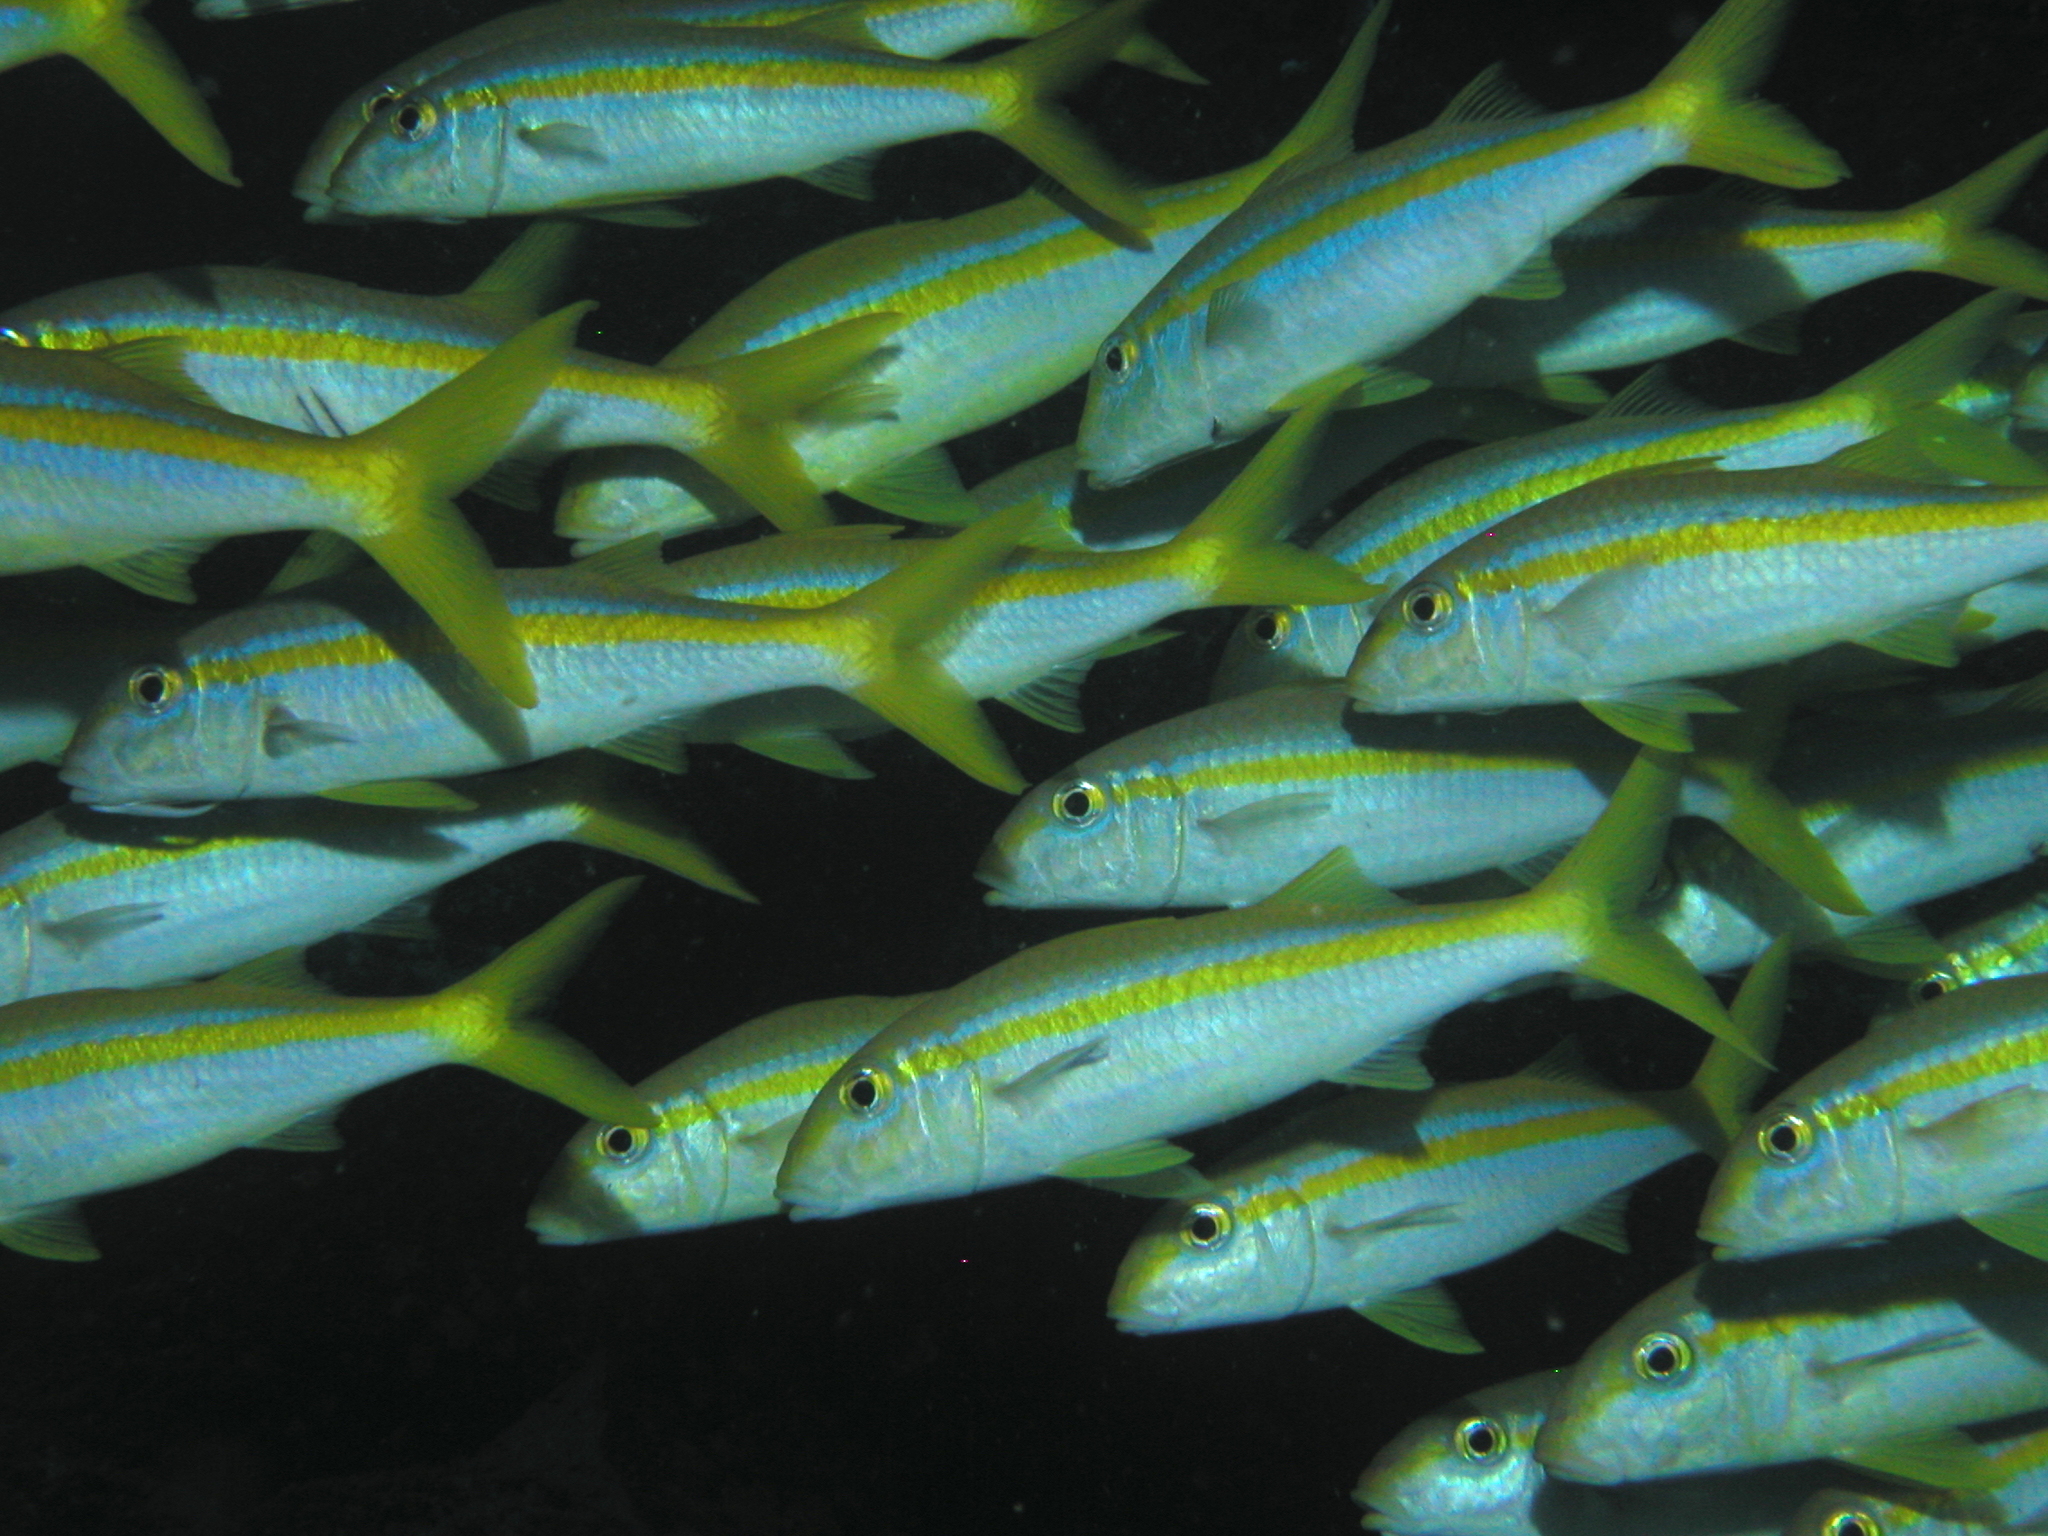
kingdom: Animalia
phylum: Chordata
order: Perciformes
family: Mullidae
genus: Mulloidichthys
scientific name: Mulloidichthys dentatus
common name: Mexican goatfish
